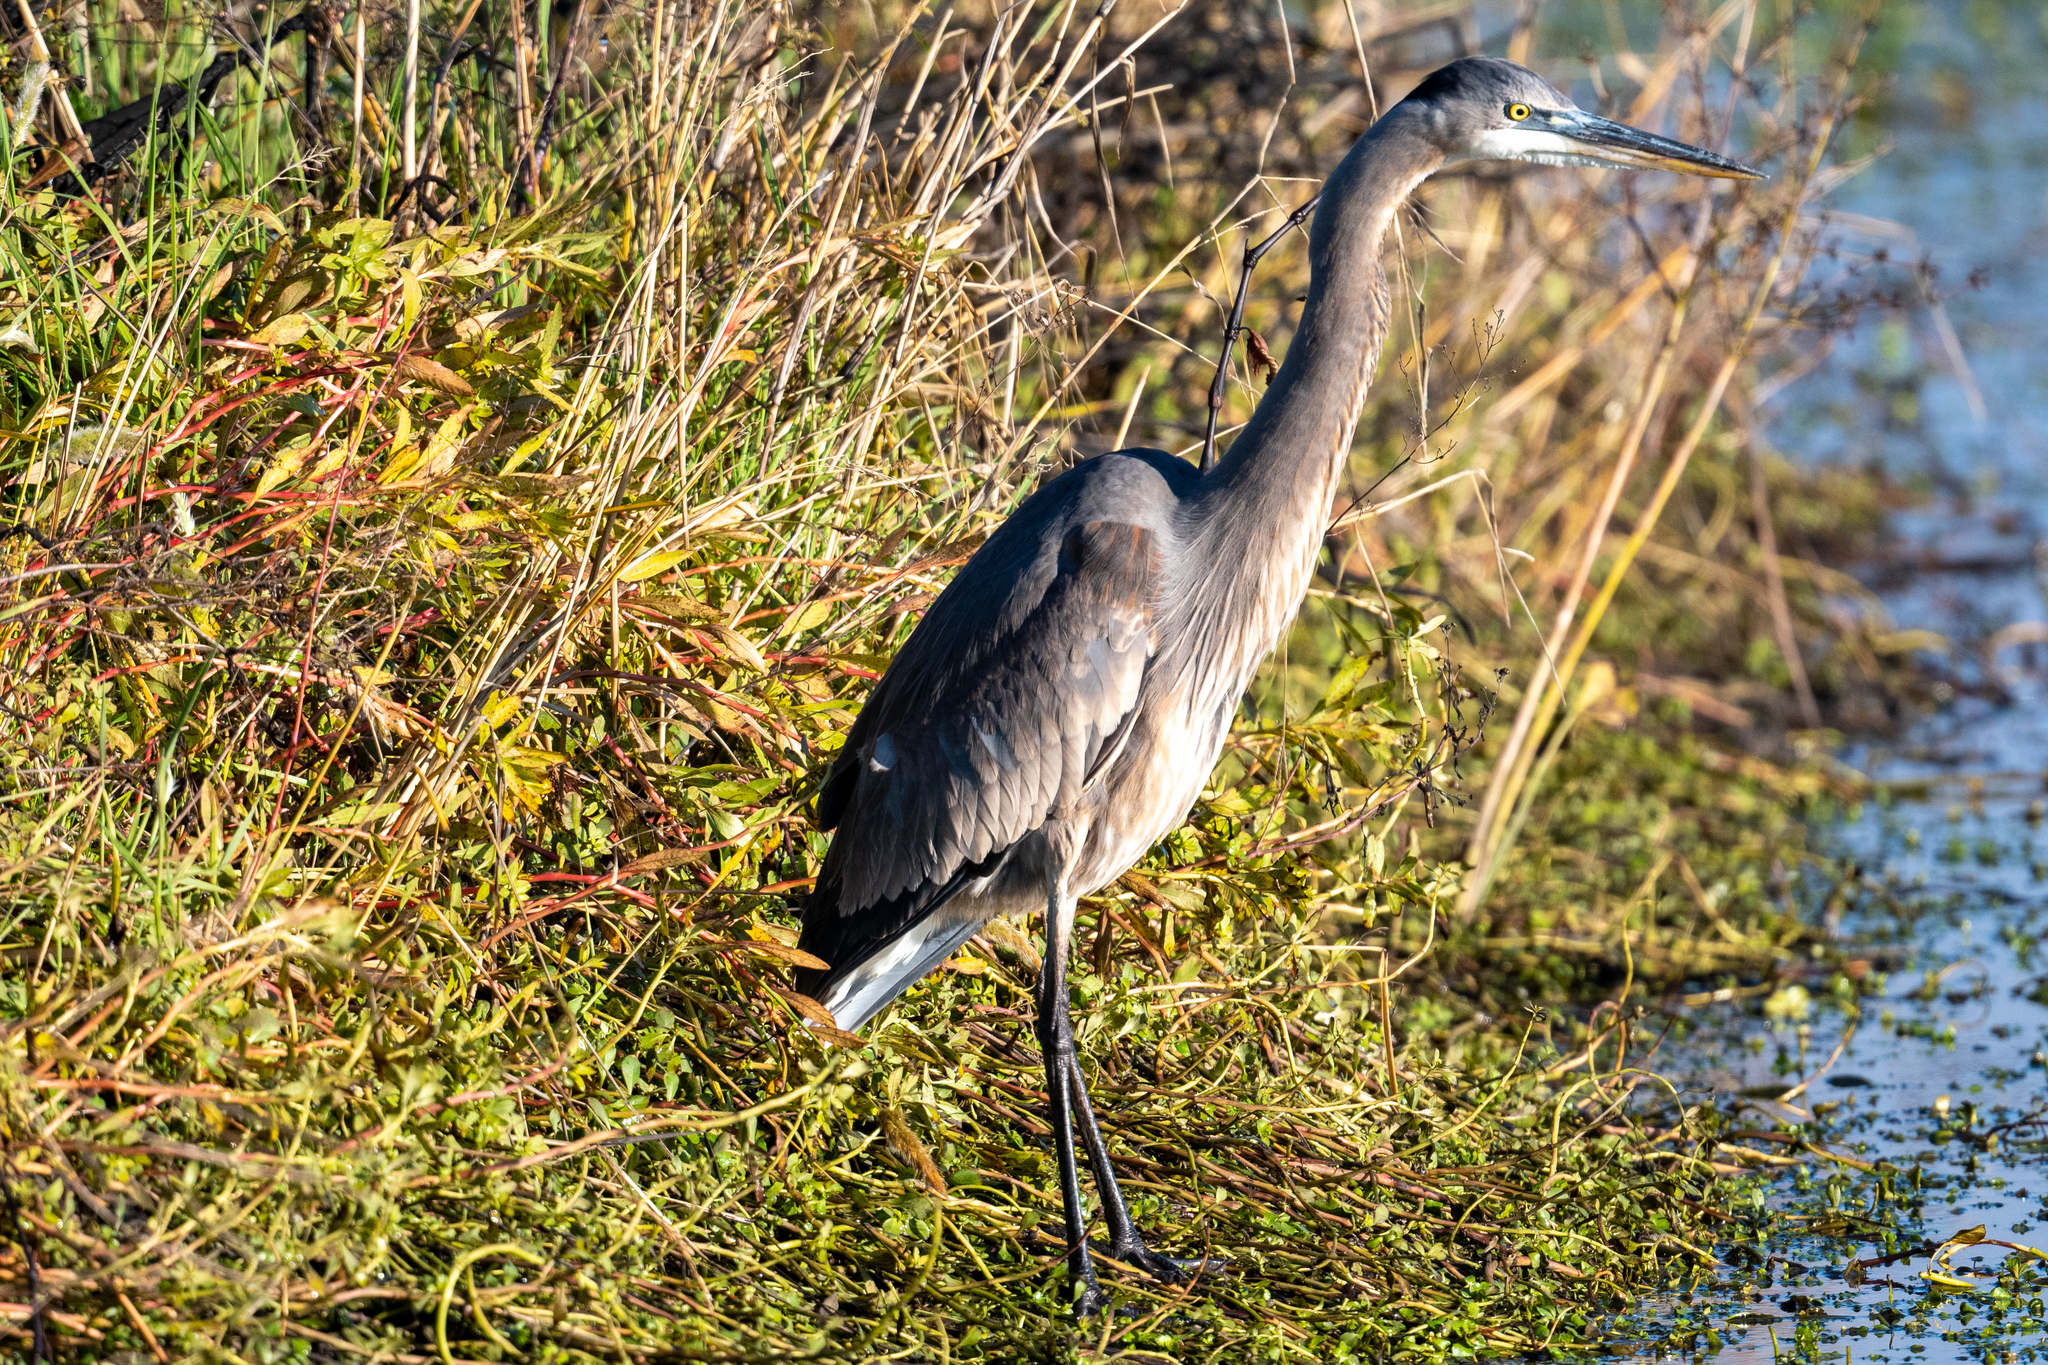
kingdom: Animalia
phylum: Chordata
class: Aves
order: Pelecaniformes
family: Ardeidae
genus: Ardea
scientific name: Ardea herodias
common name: Great blue heron
